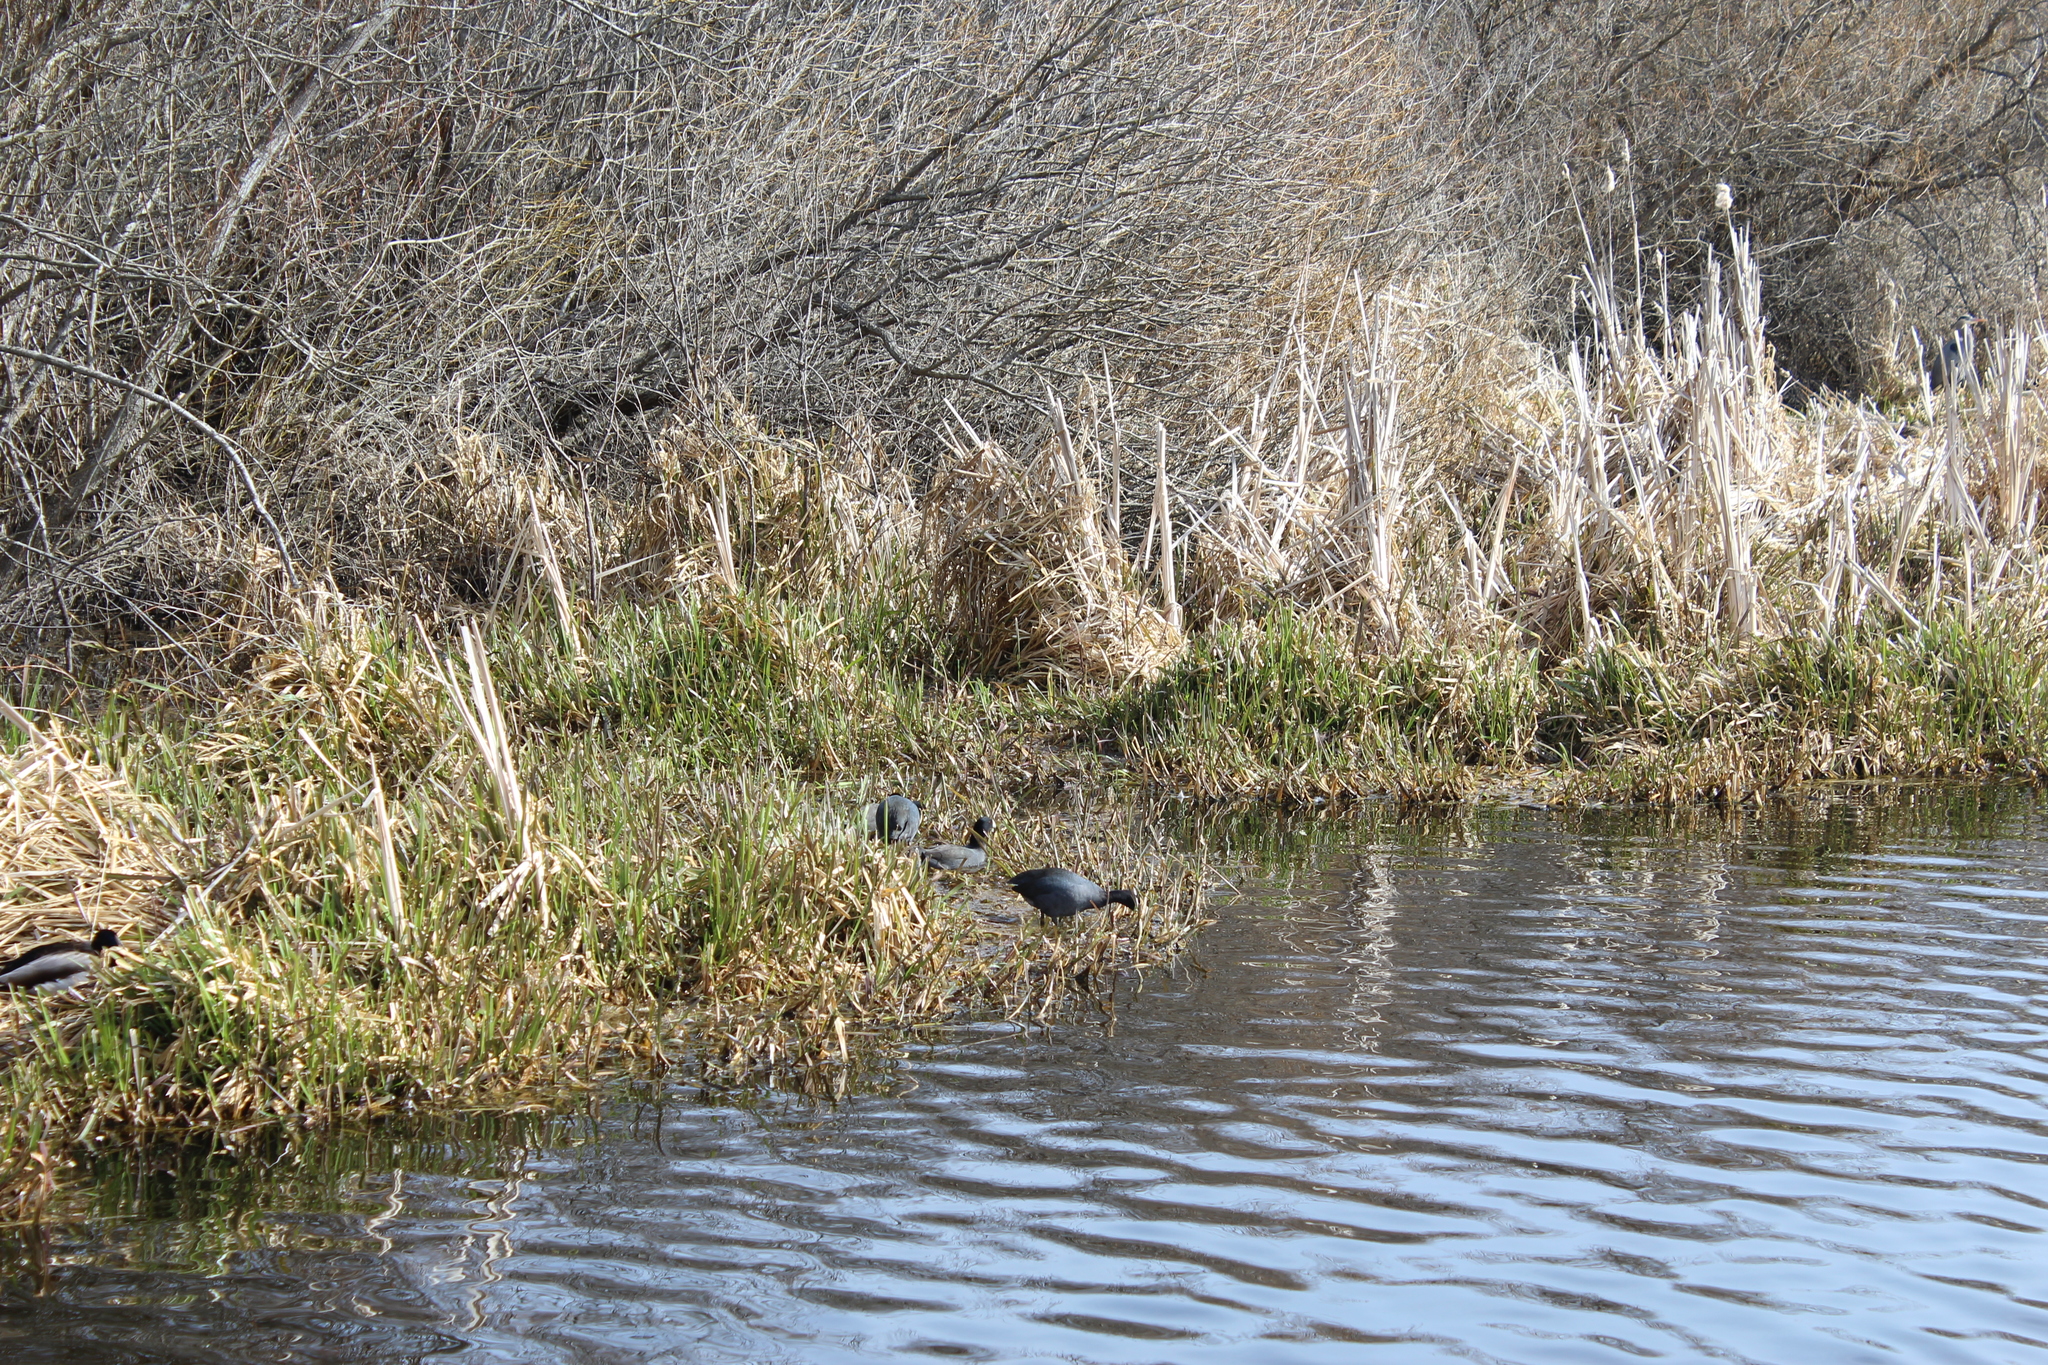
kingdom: Animalia
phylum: Chordata
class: Aves
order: Gruiformes
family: Rallidae
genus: Fulica
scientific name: Fulica americana
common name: American coot
